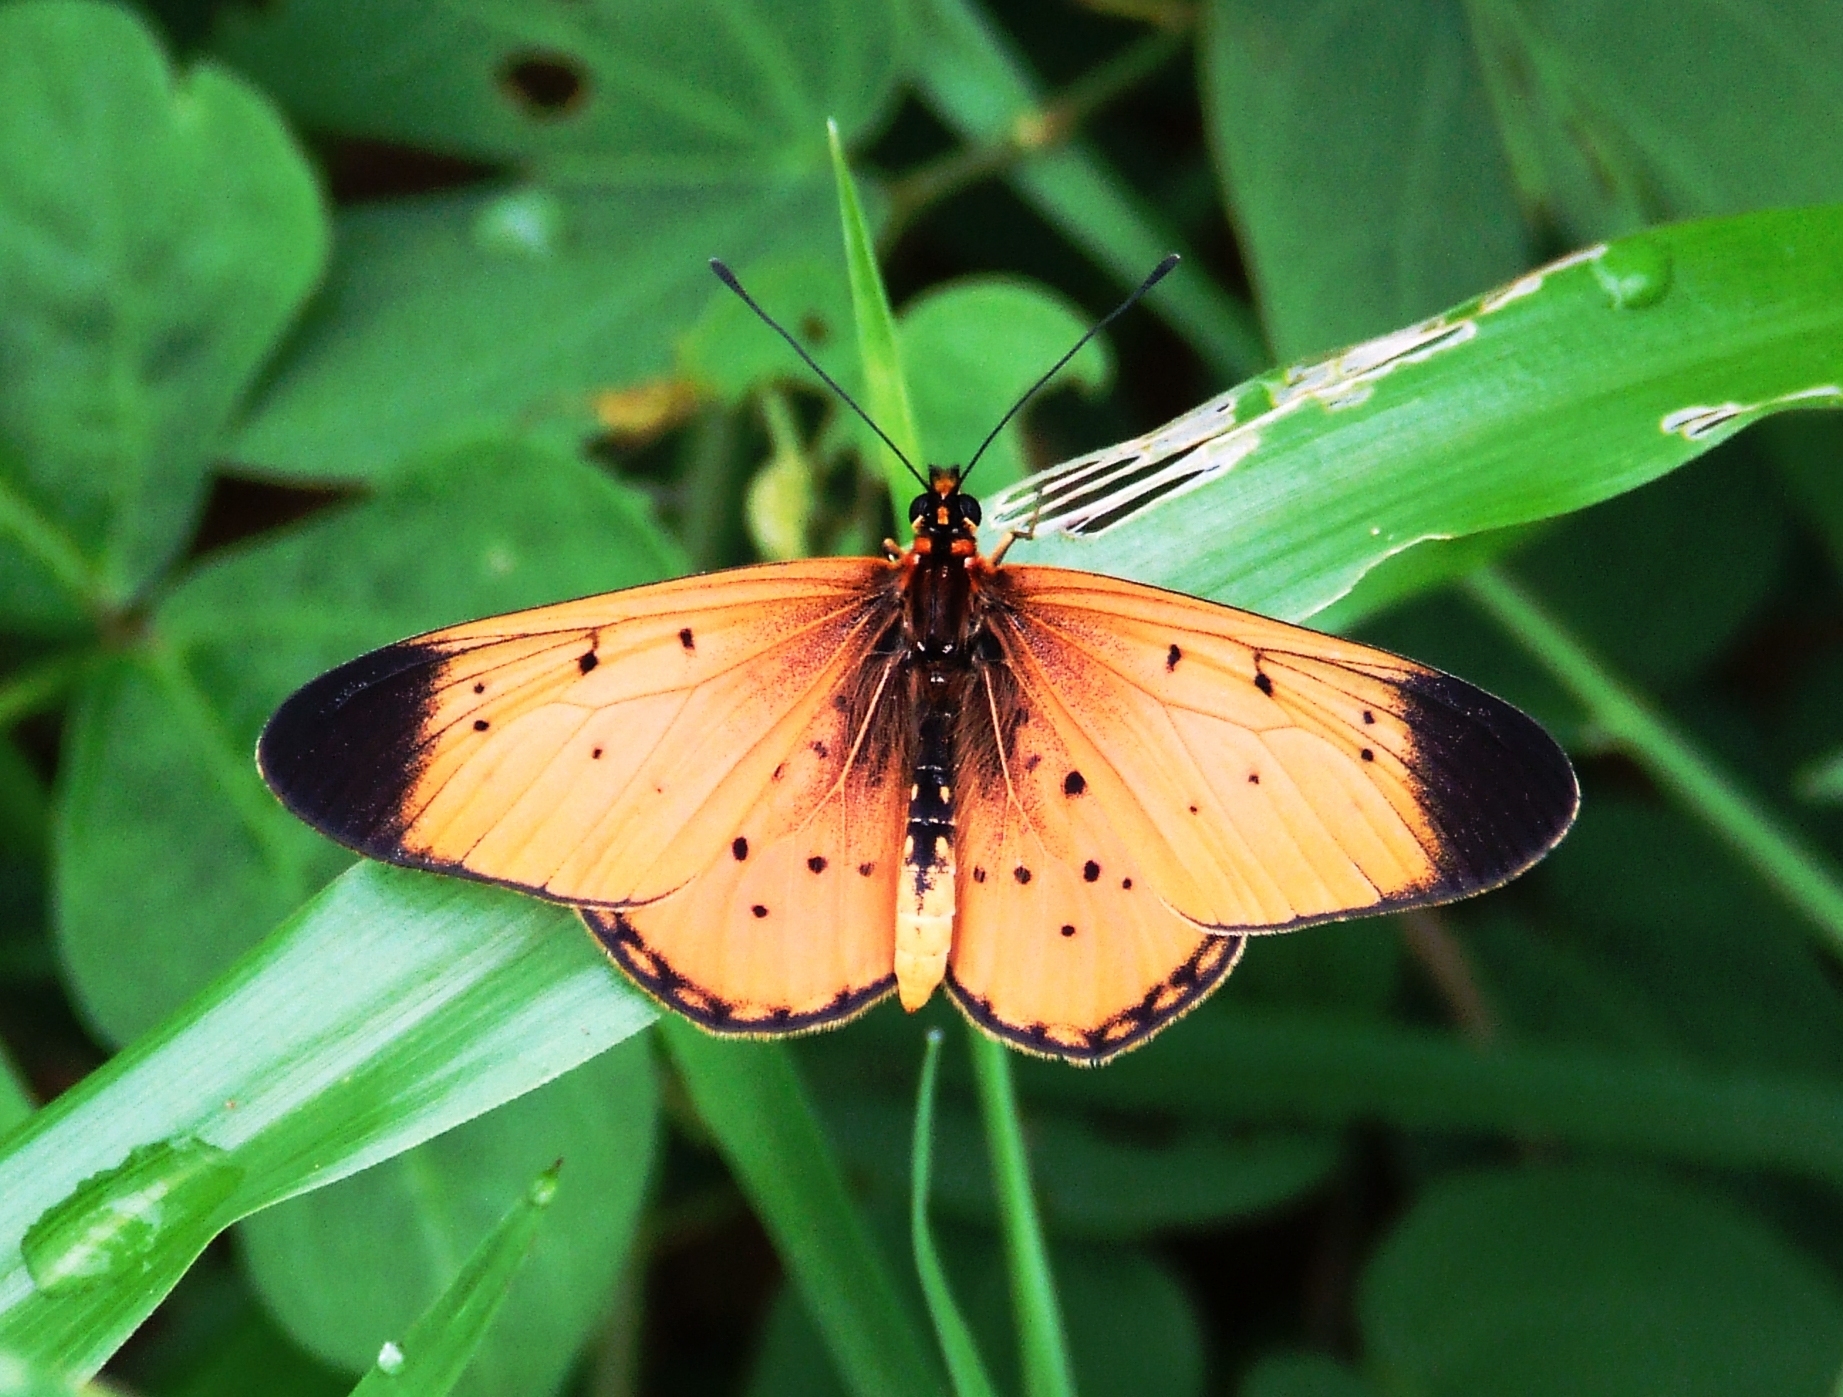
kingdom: Animalia
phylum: Arthropoda
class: Insecta
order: Lepidoptera
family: Nymphalidae
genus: Stephenia
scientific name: Stephenia
